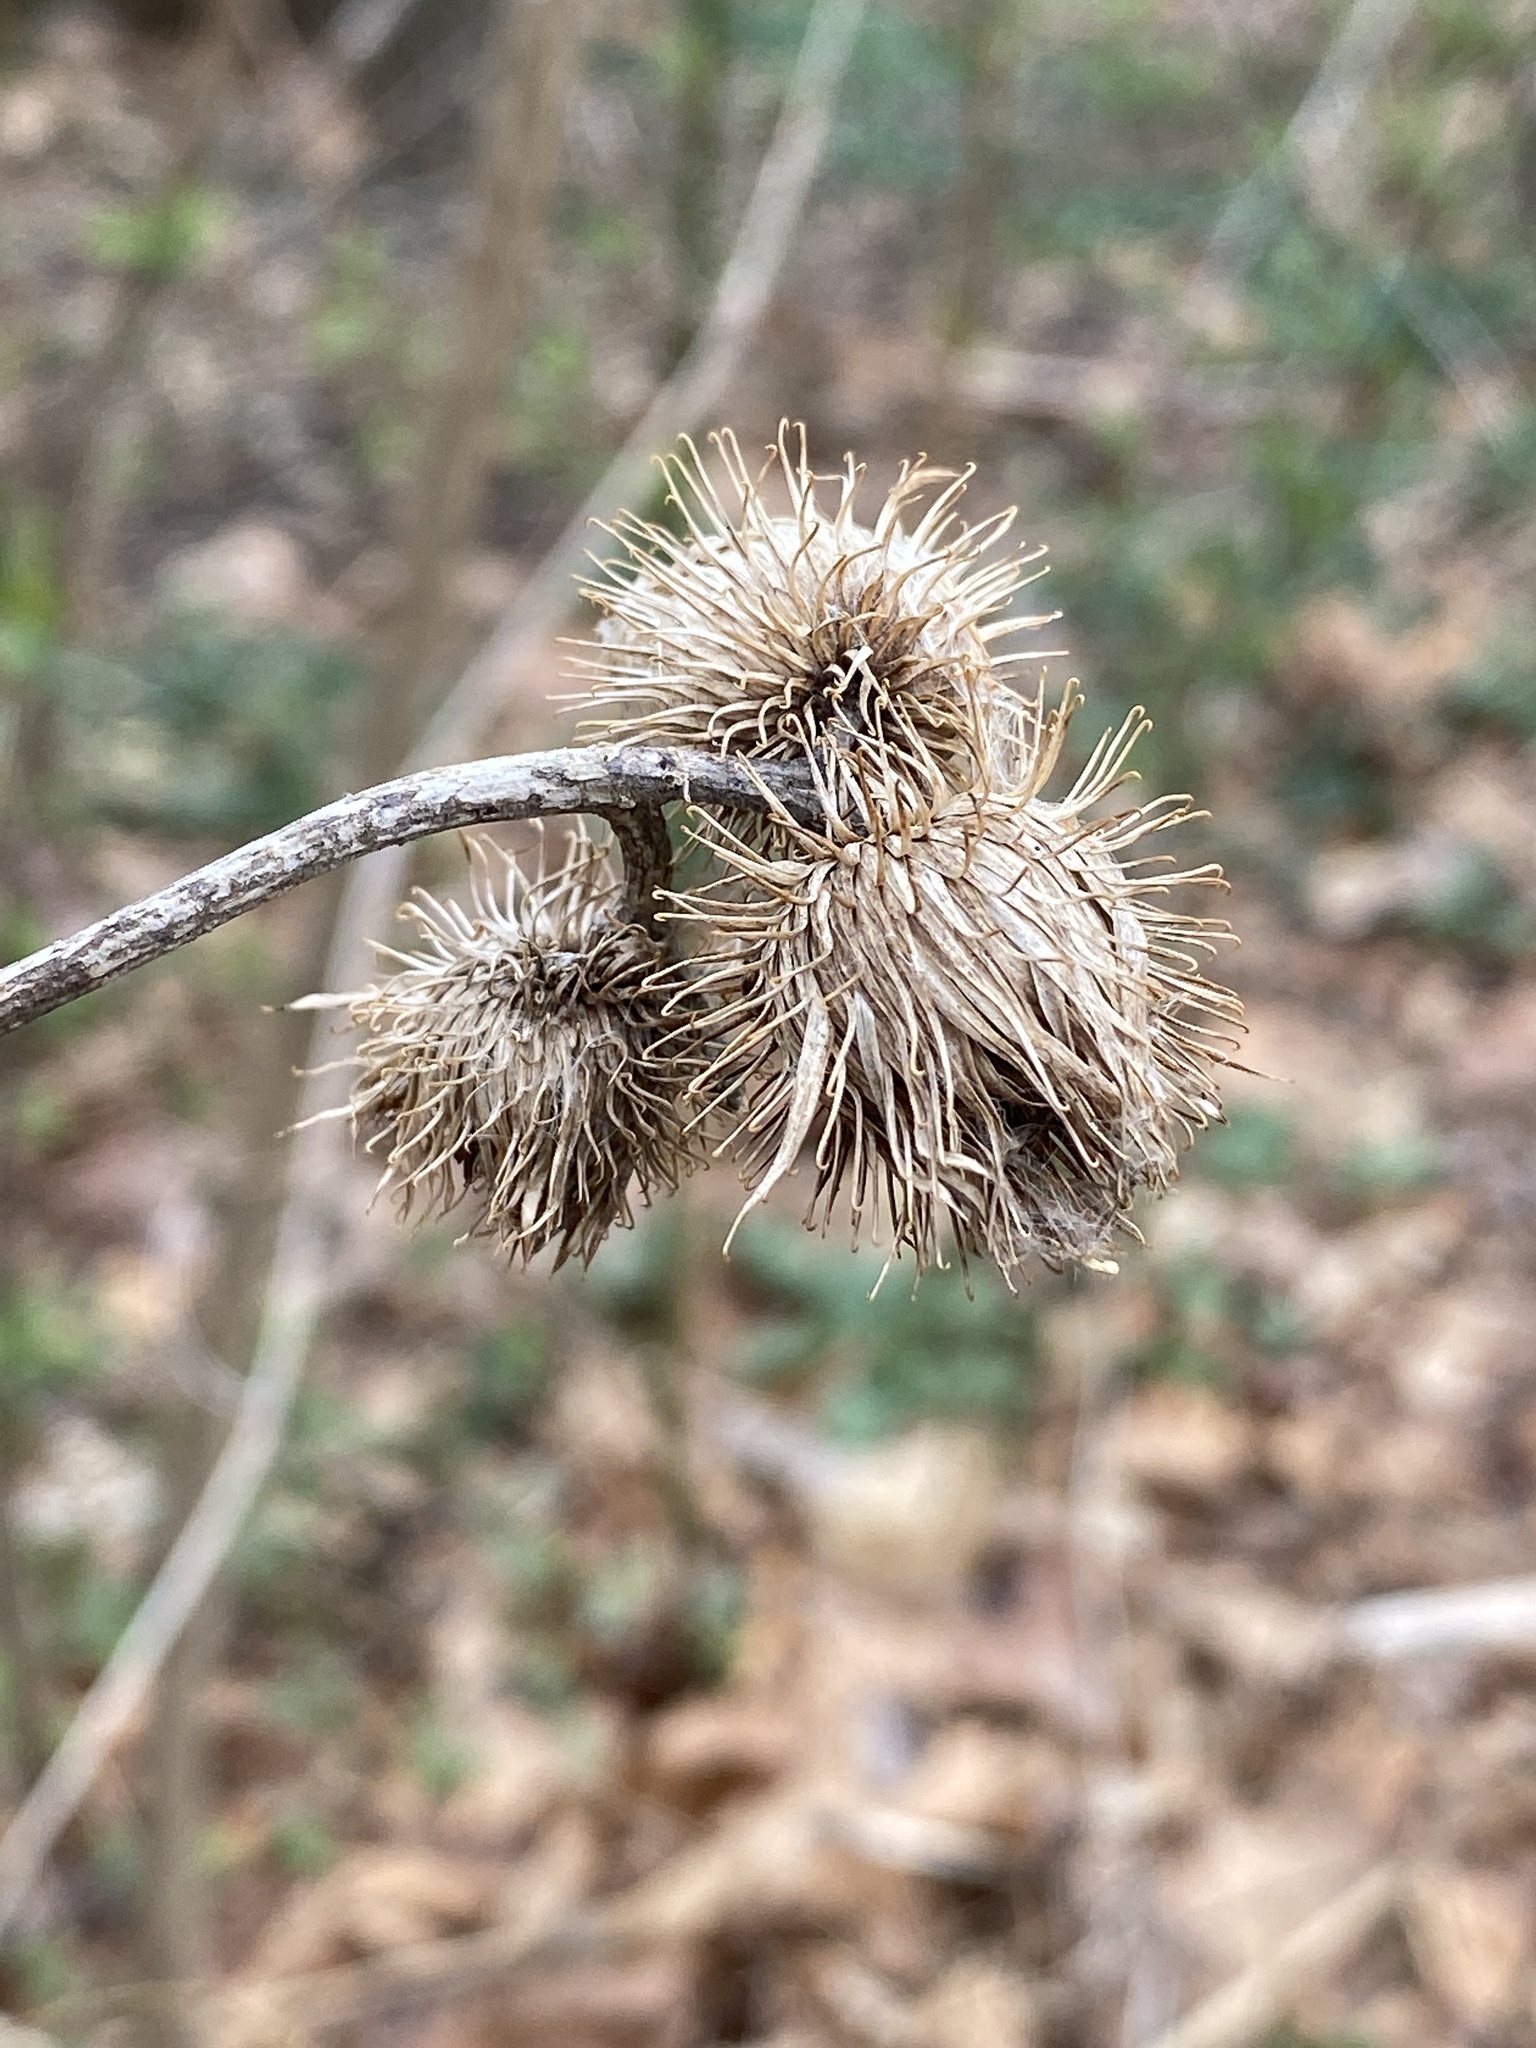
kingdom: Plantae
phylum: Tracheophyta
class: Magnoliopsida
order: Asterales
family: Asteraceae
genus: Arctium
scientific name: Arctium minus
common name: Lesser burdock
